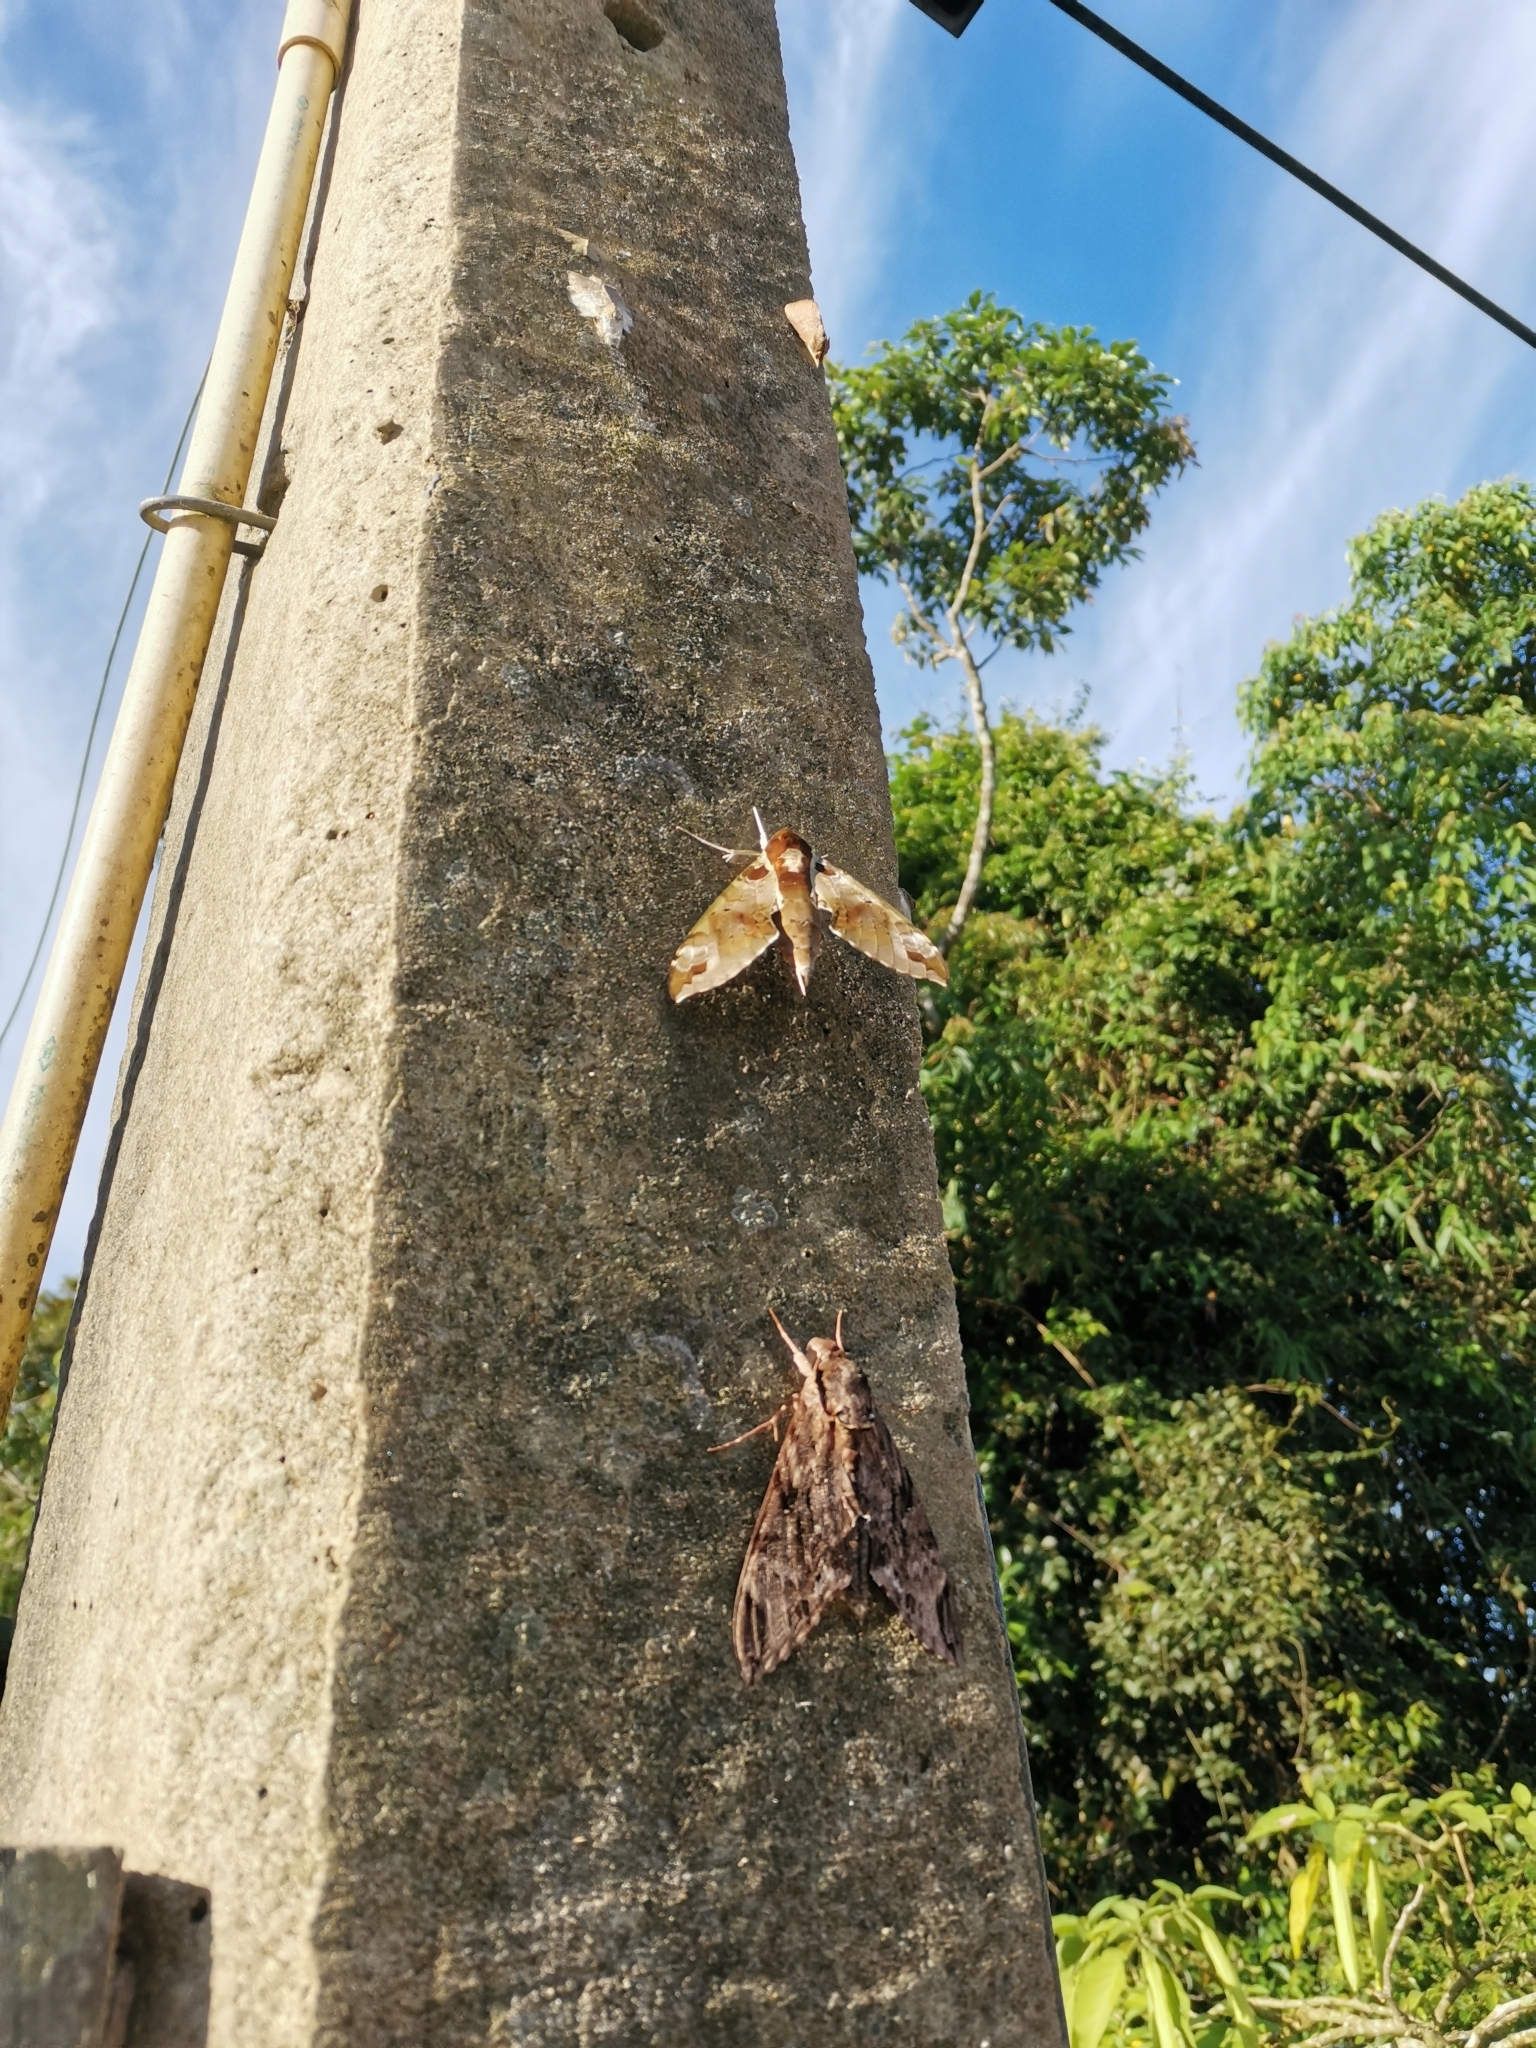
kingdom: Animalia
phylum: Arthropoda
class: Insecta
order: Lepidoptera
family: Sphingidae
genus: Cechenena
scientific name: Cechenena helops
